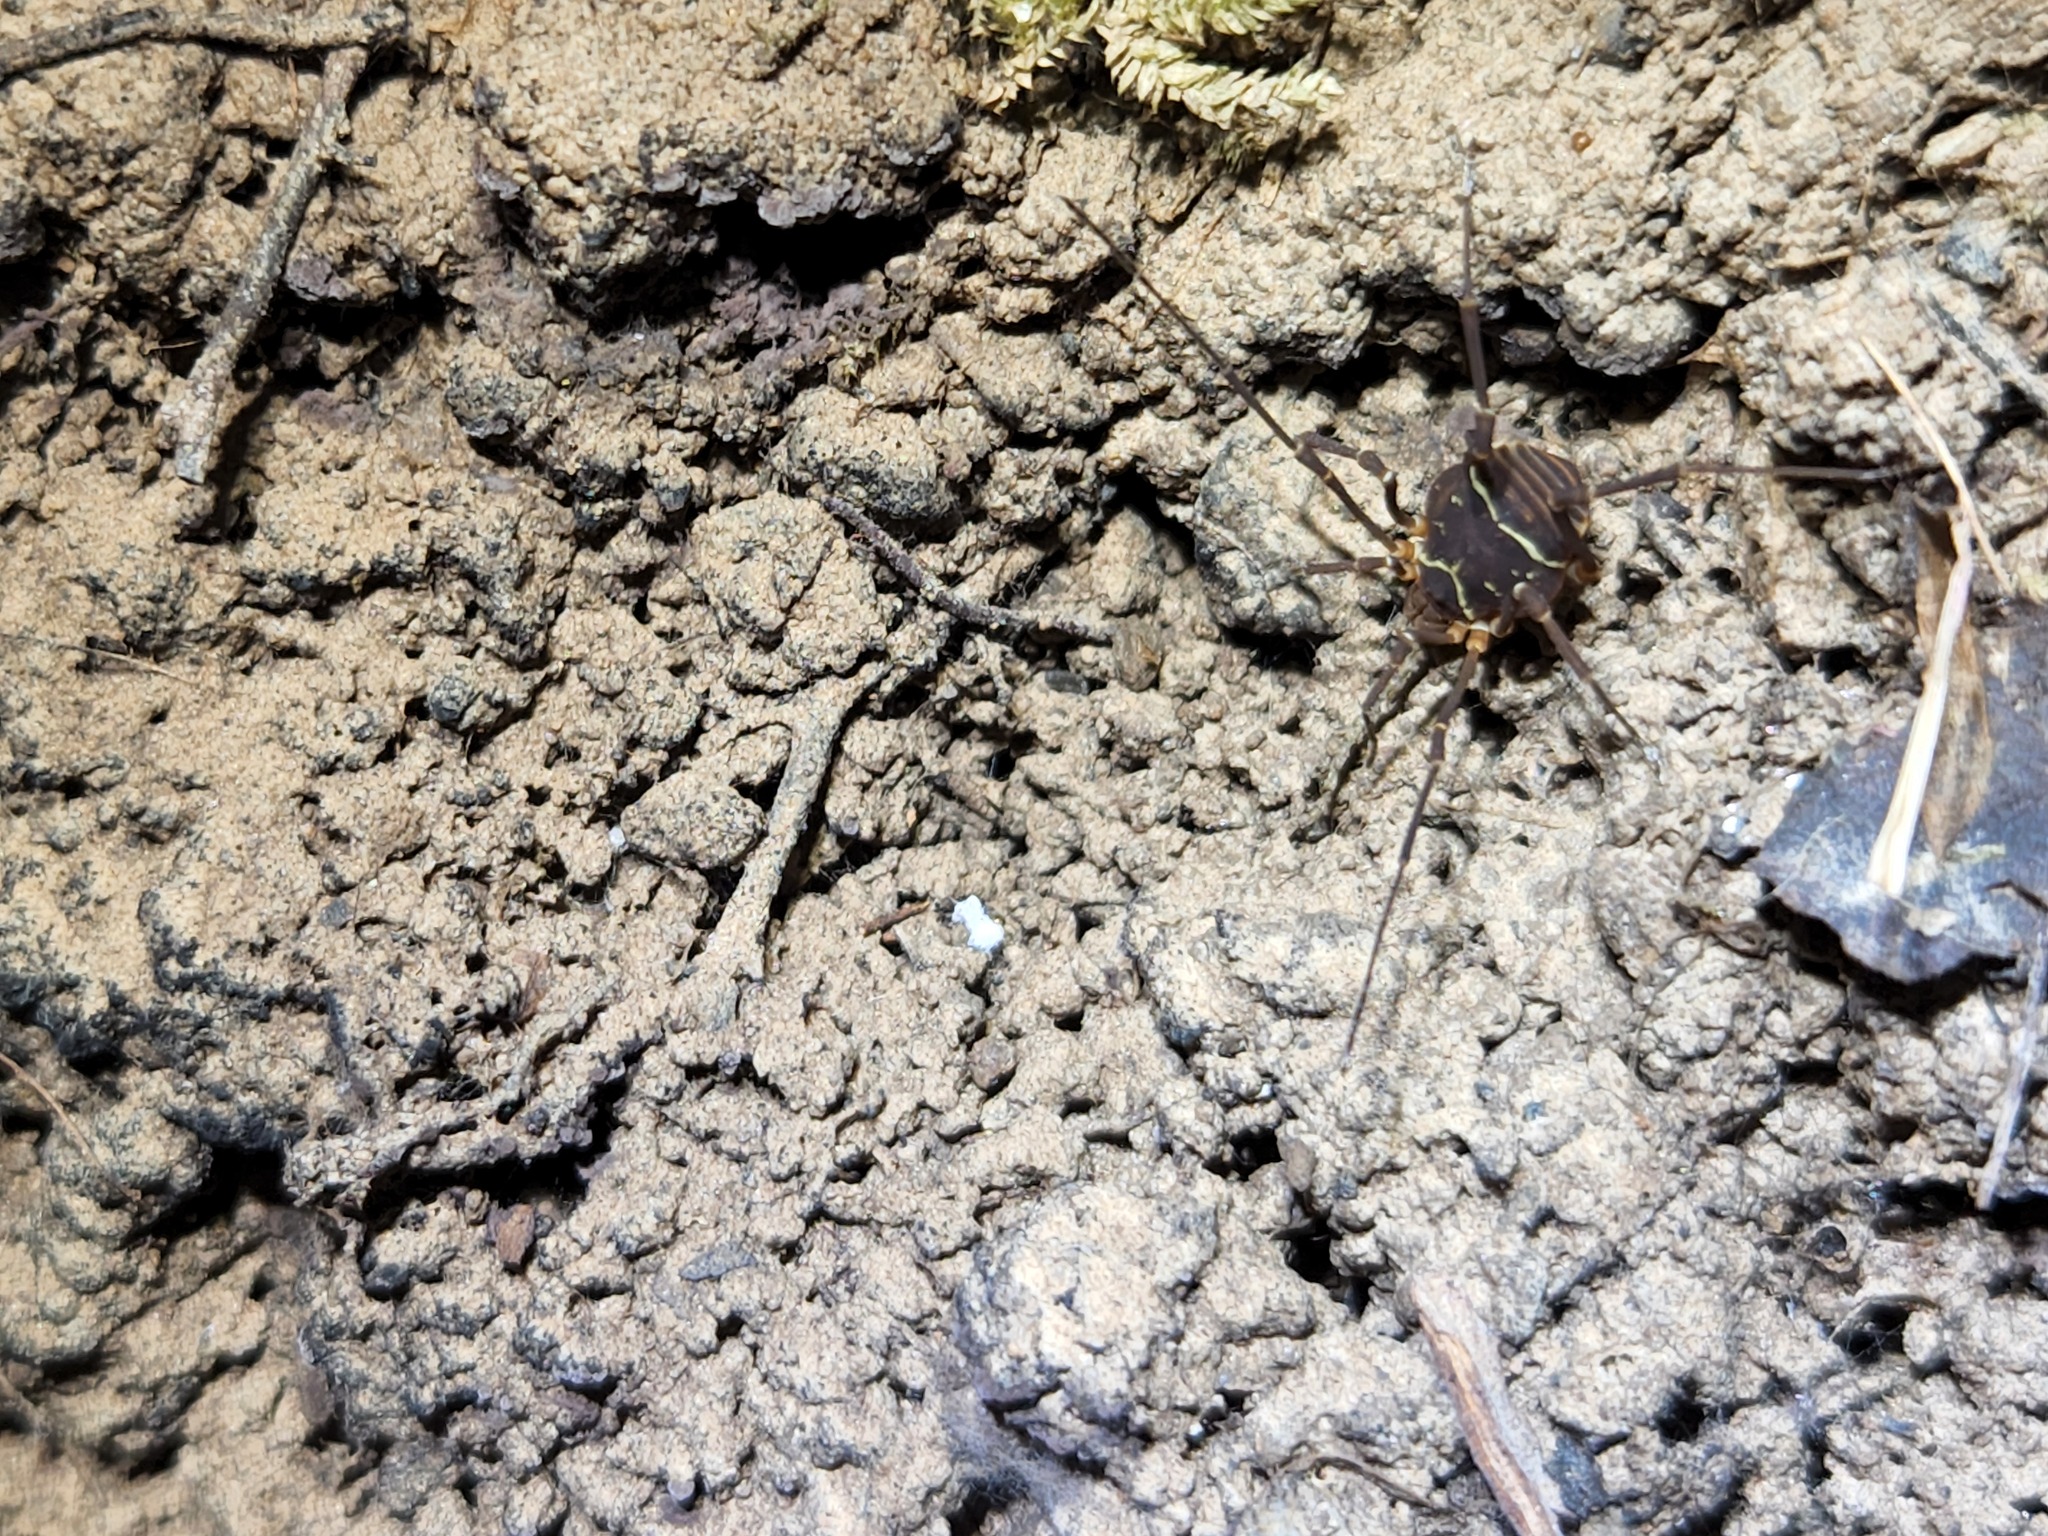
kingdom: Animalia
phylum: Arthropoda
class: Arachnida
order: Opiliones
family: Cosmetidae
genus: Libitioides
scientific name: Libitioides sayi
